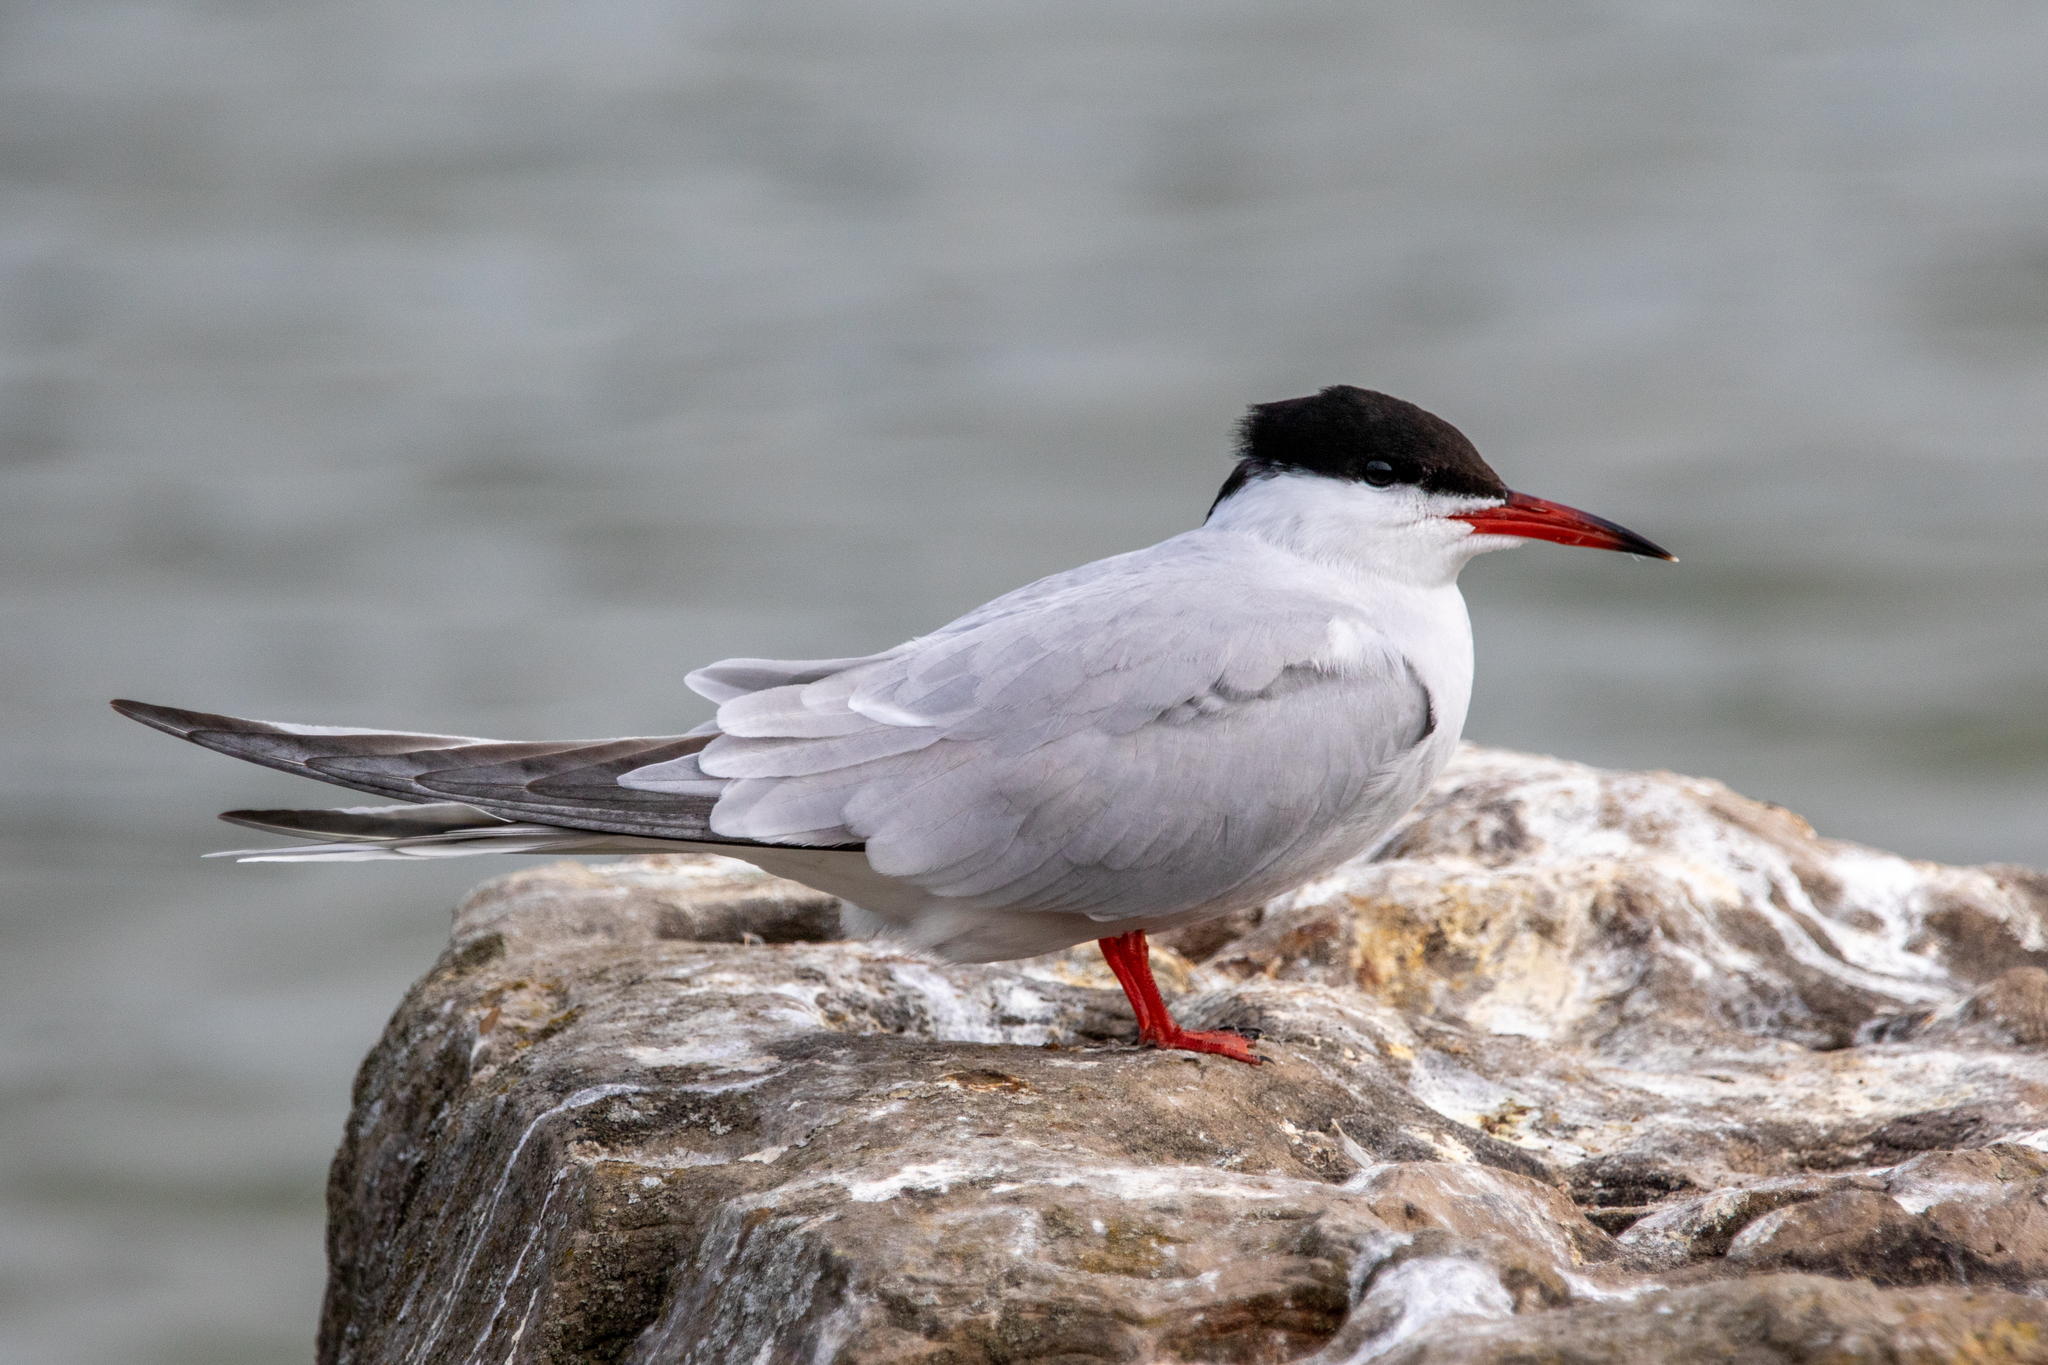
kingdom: Animalia
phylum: Chordata
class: Aves
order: Charadriiformes
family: Laridae
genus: Sterna
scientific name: Sterna hirundo
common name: Common tern
